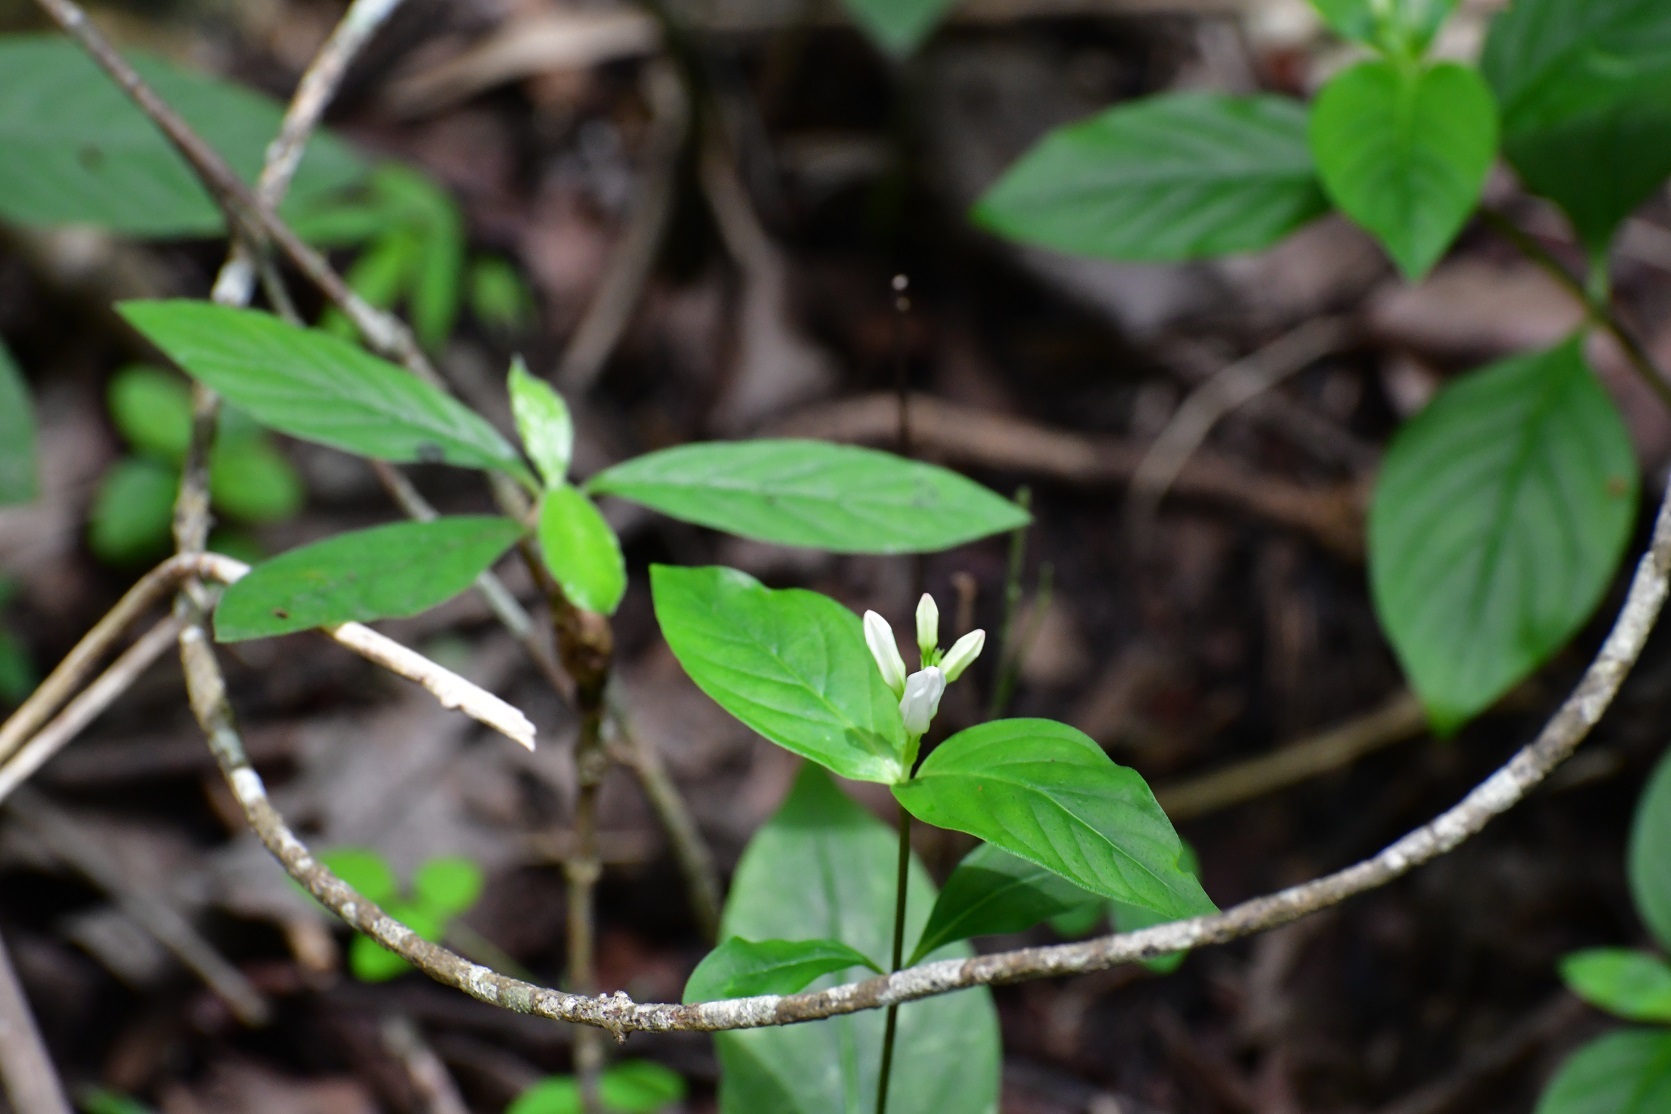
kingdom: Plantae
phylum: Tracheophyta
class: Magnoliopsida
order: Gentianales
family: Loganiaceae
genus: Spigelia
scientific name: Spigelia humboldtiana
